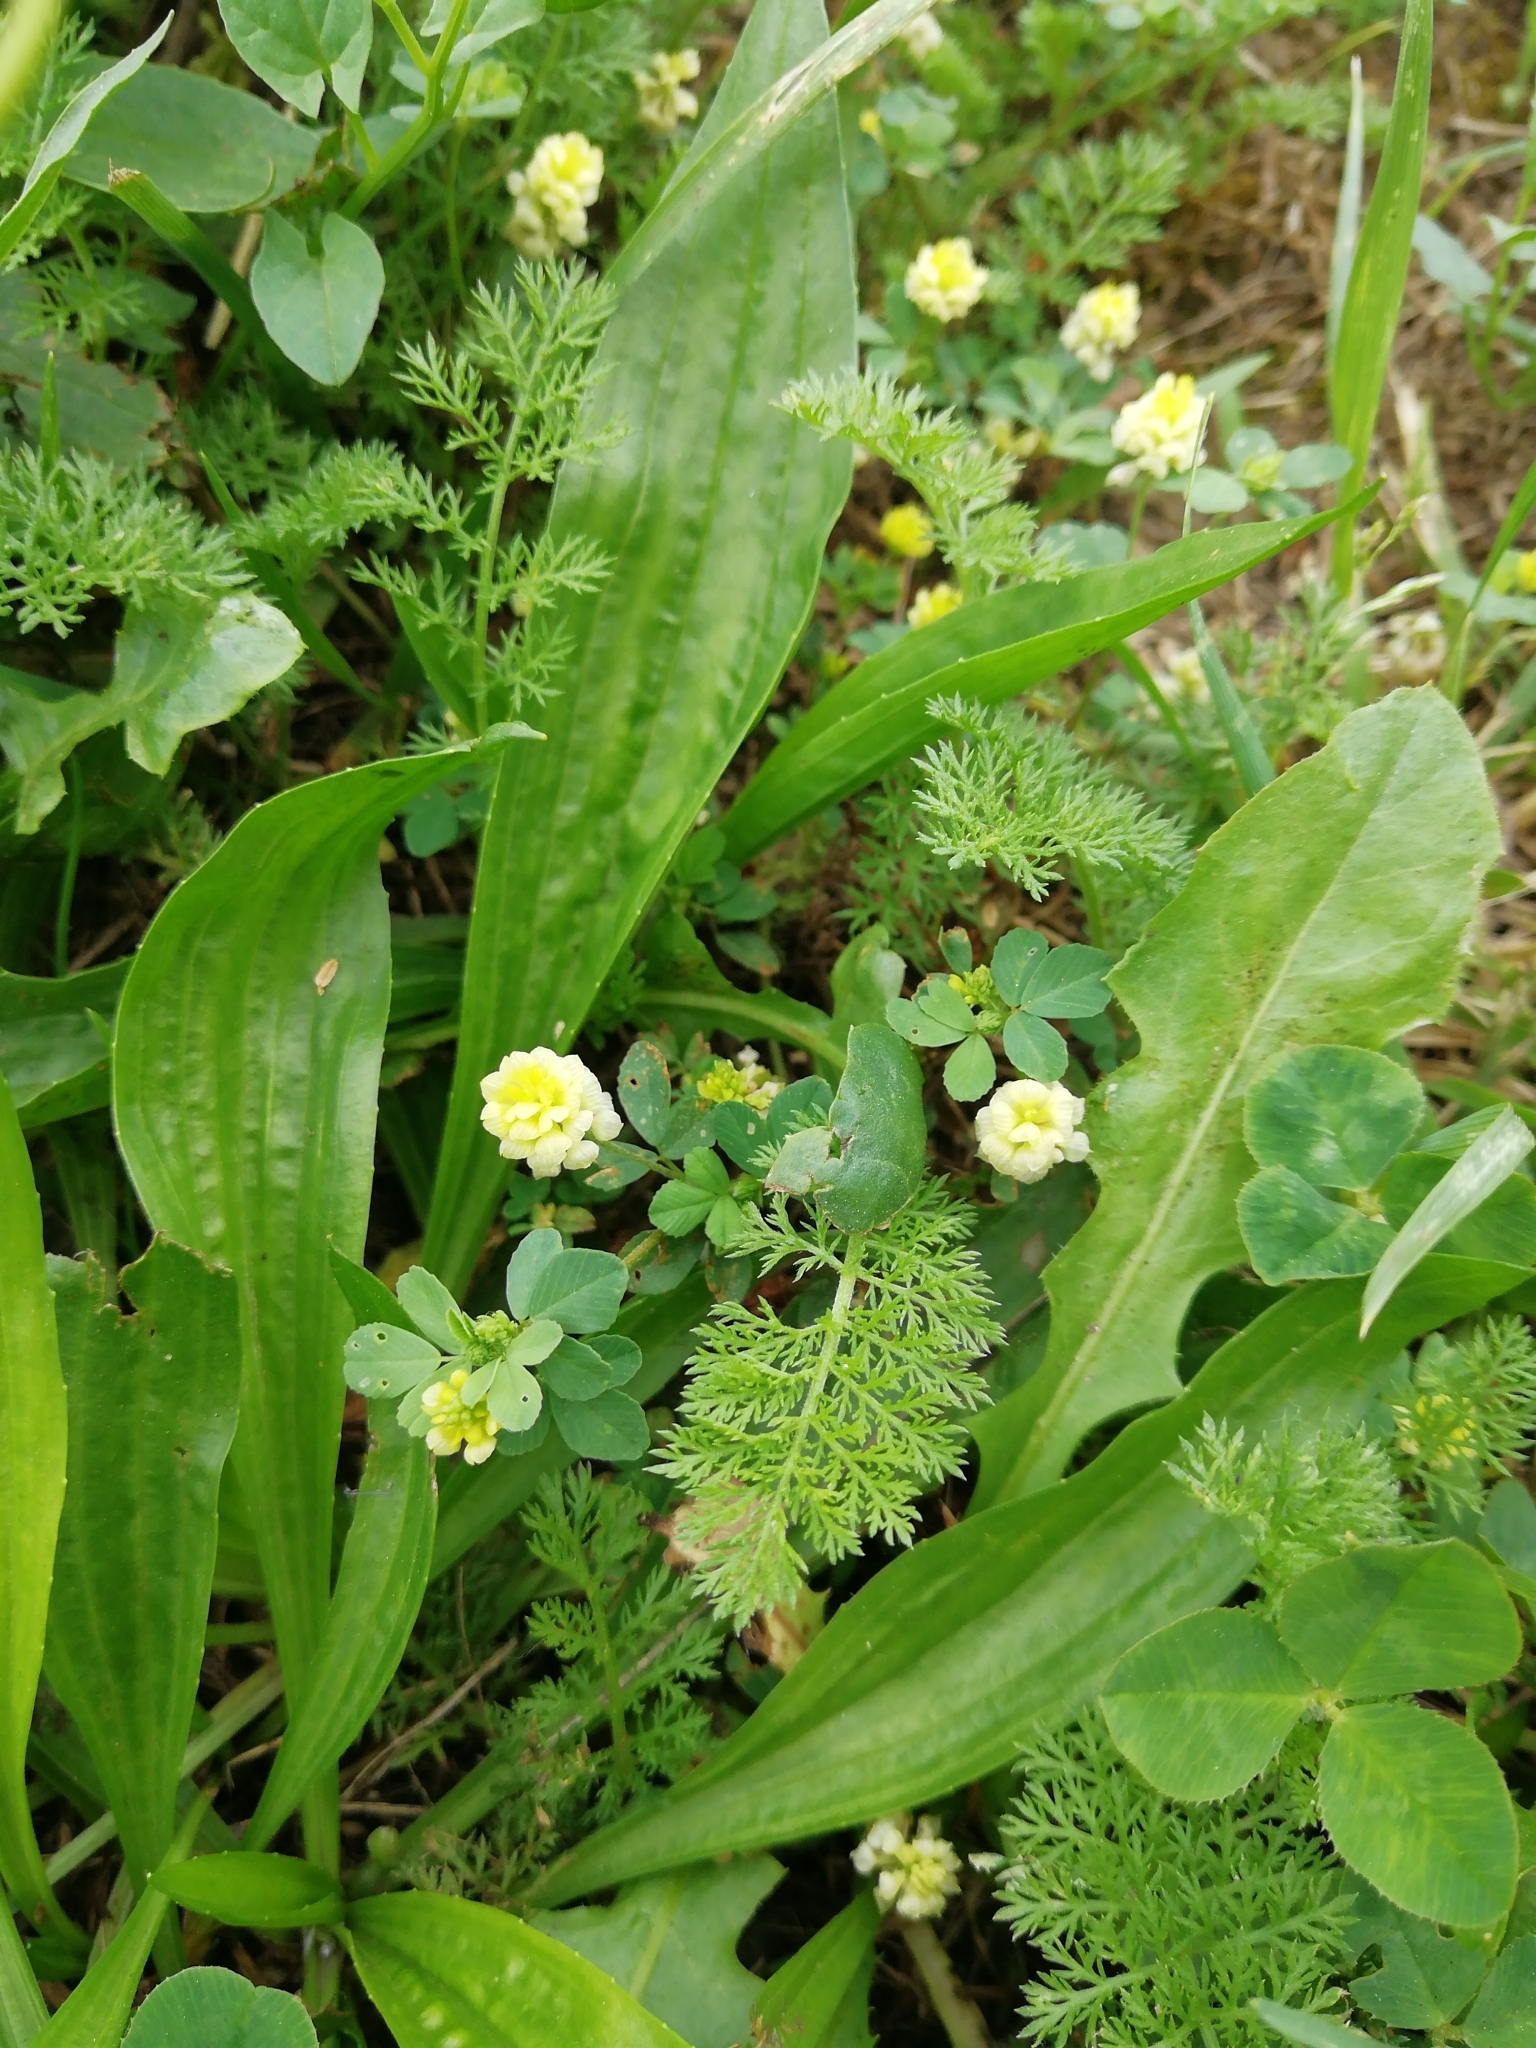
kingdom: Plantae
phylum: Tracheophyta
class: Magnoliopsida
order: Fabales
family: Fabaceae
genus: Trifolium
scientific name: Trifolium campestre
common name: Field clover
